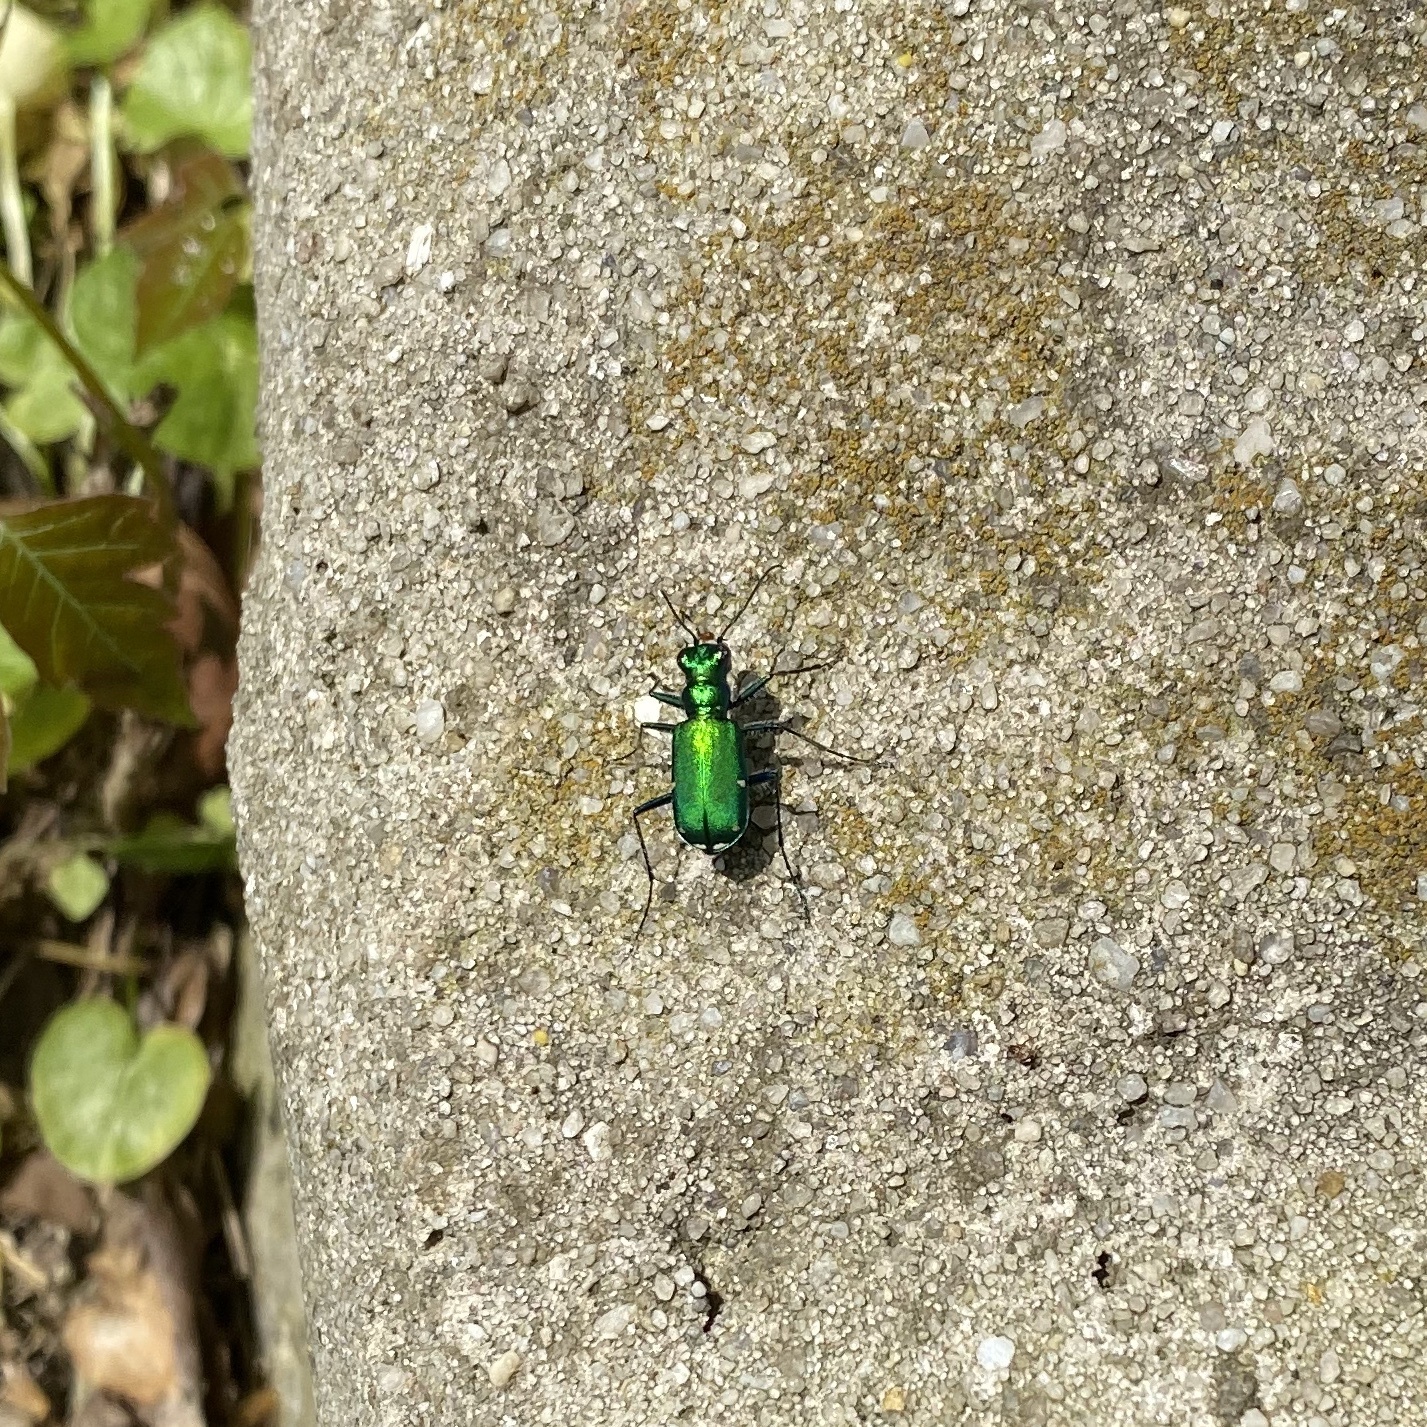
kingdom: Animalia
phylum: Arthropoda
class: Insecta
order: Coleoptera
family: Carabidae
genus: Cicindela
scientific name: Cicindela sexguttata
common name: Six-spotted tiger beetle
